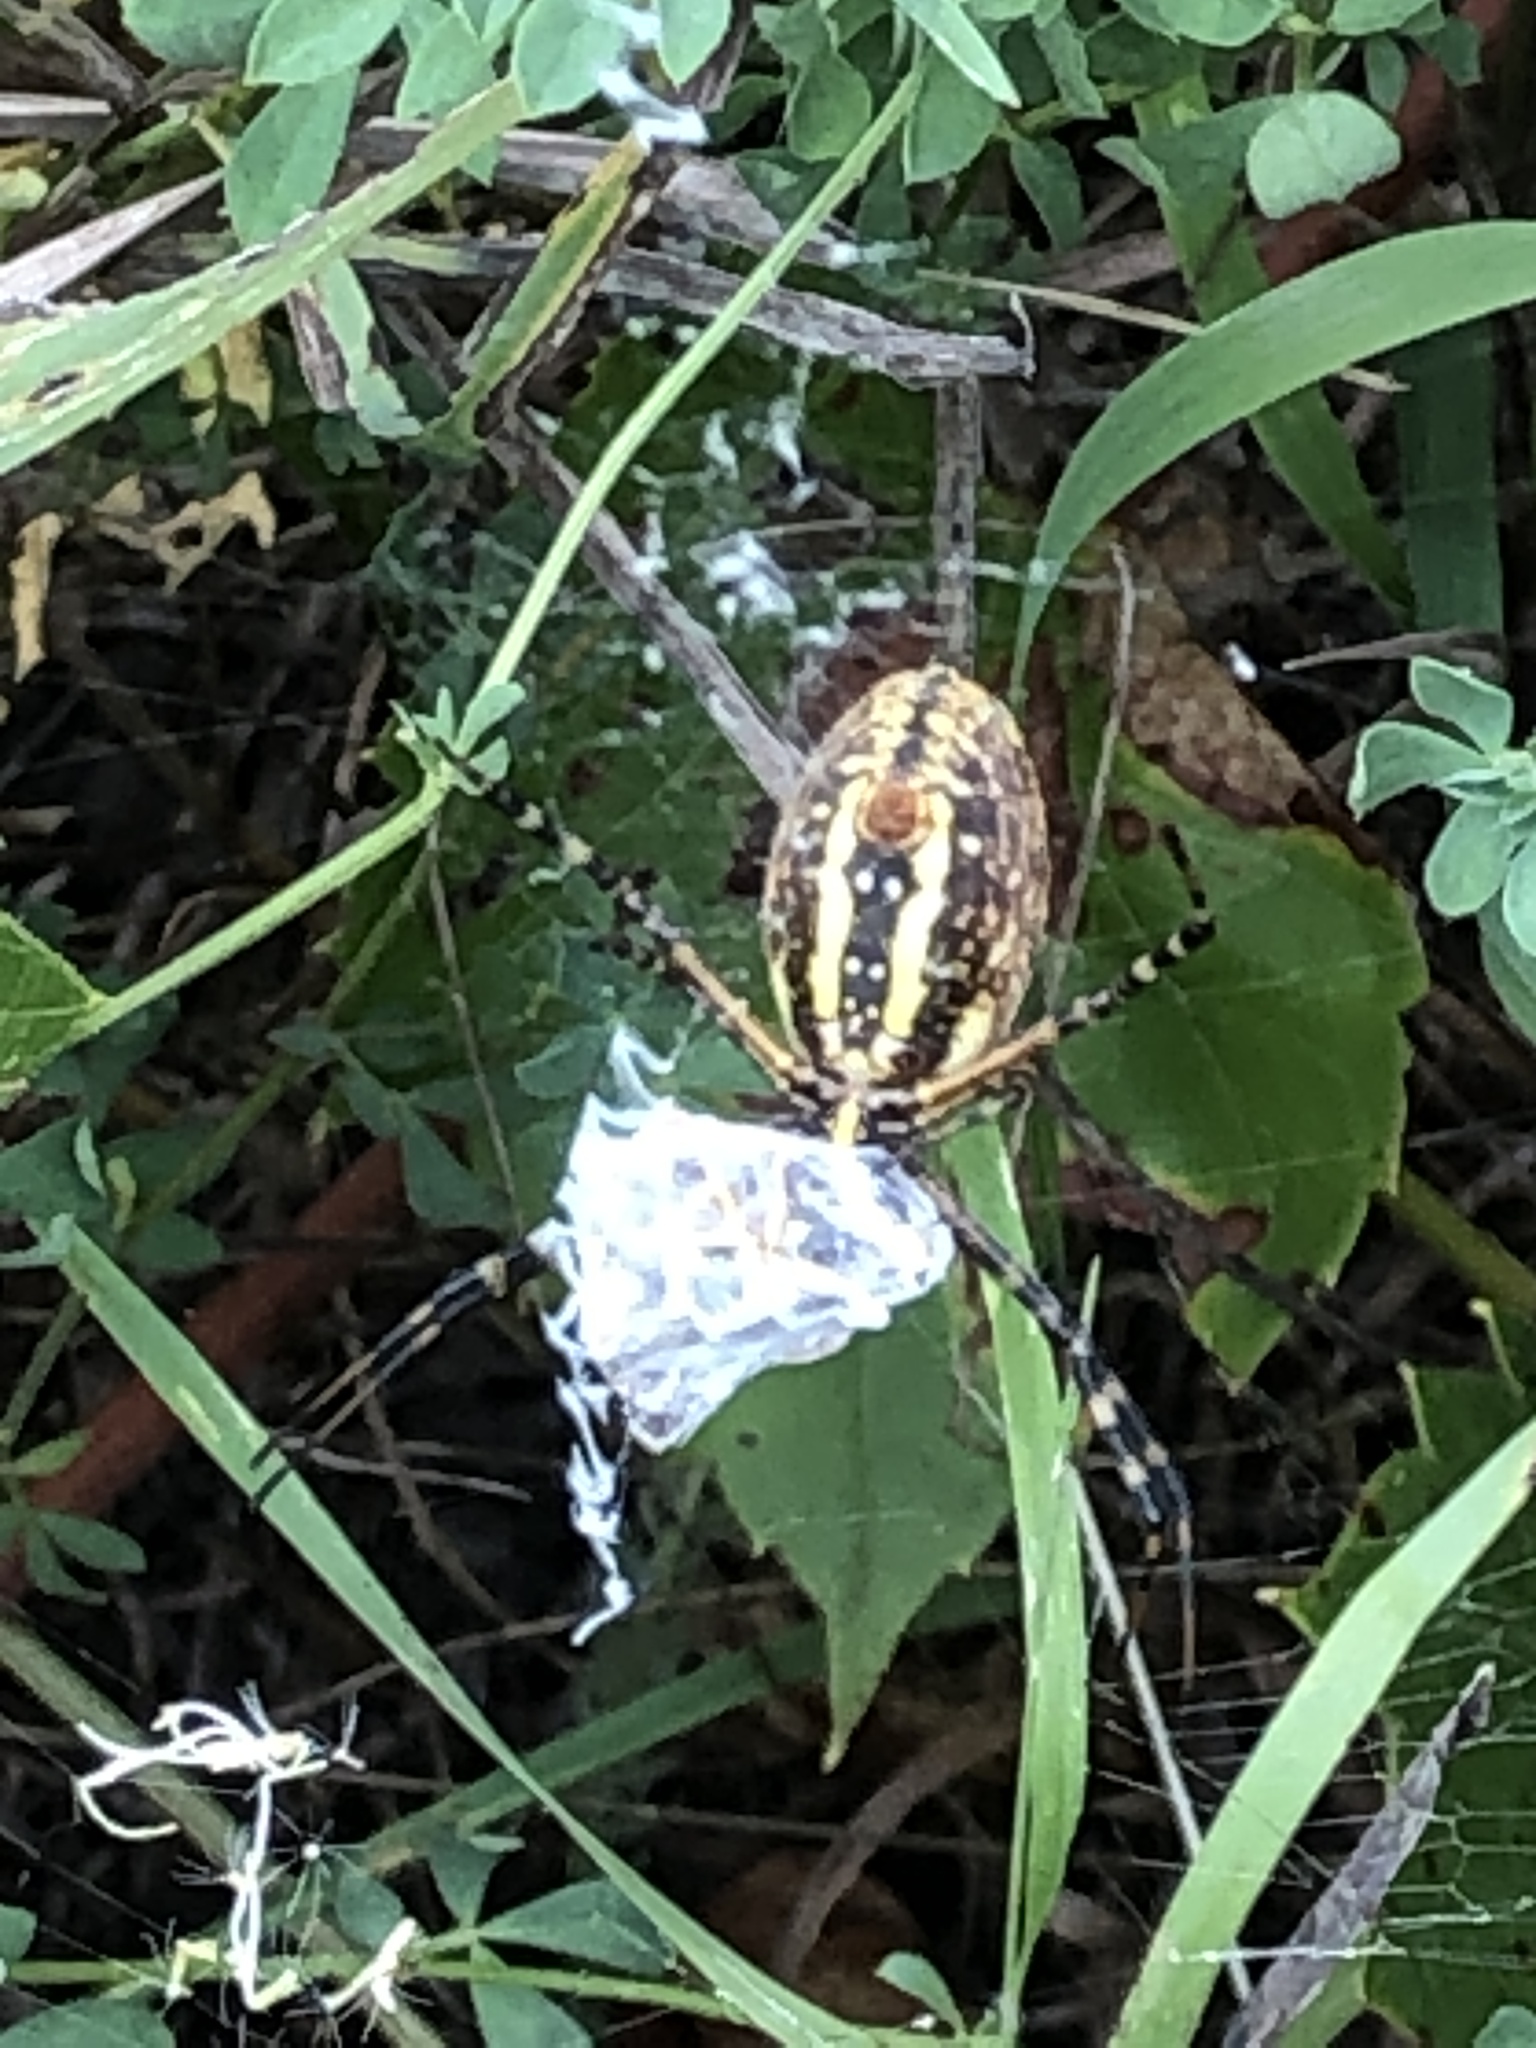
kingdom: Animalia
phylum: Arthropoda
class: Arachnida
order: Araneae
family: Araneidae
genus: Argiope
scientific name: Argiope trifasciata
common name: Banded garden spider
